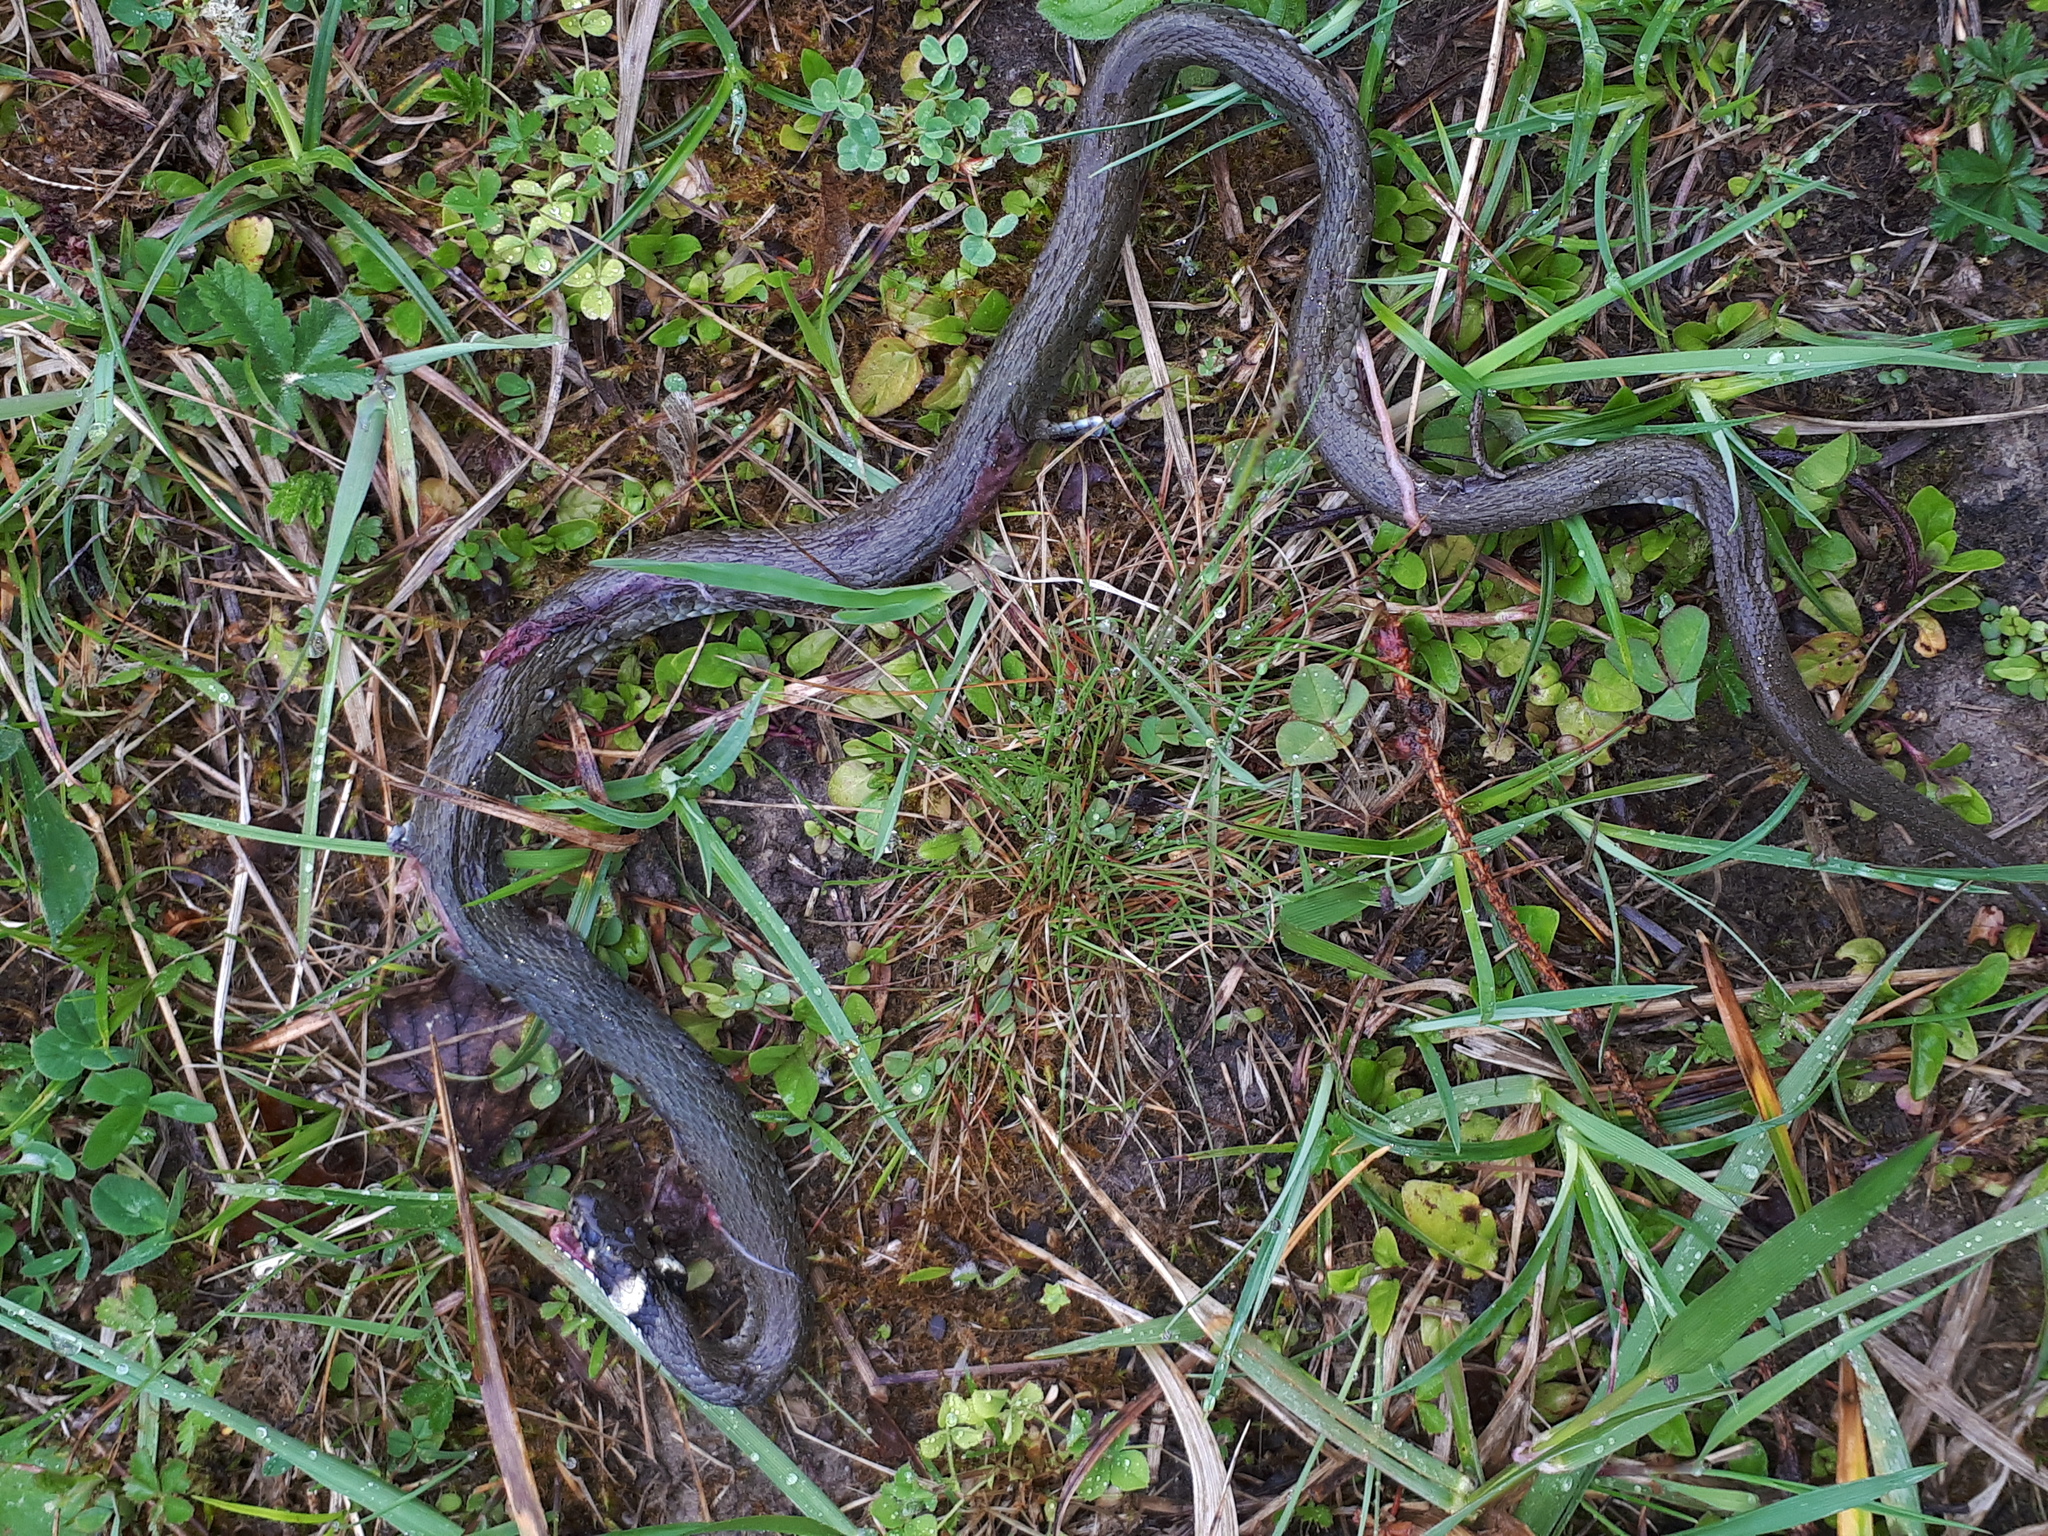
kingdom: Animalia
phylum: Chordata
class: Squamata
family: Colubridae
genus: Natrix
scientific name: Natrix natrix
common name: Grass snake
